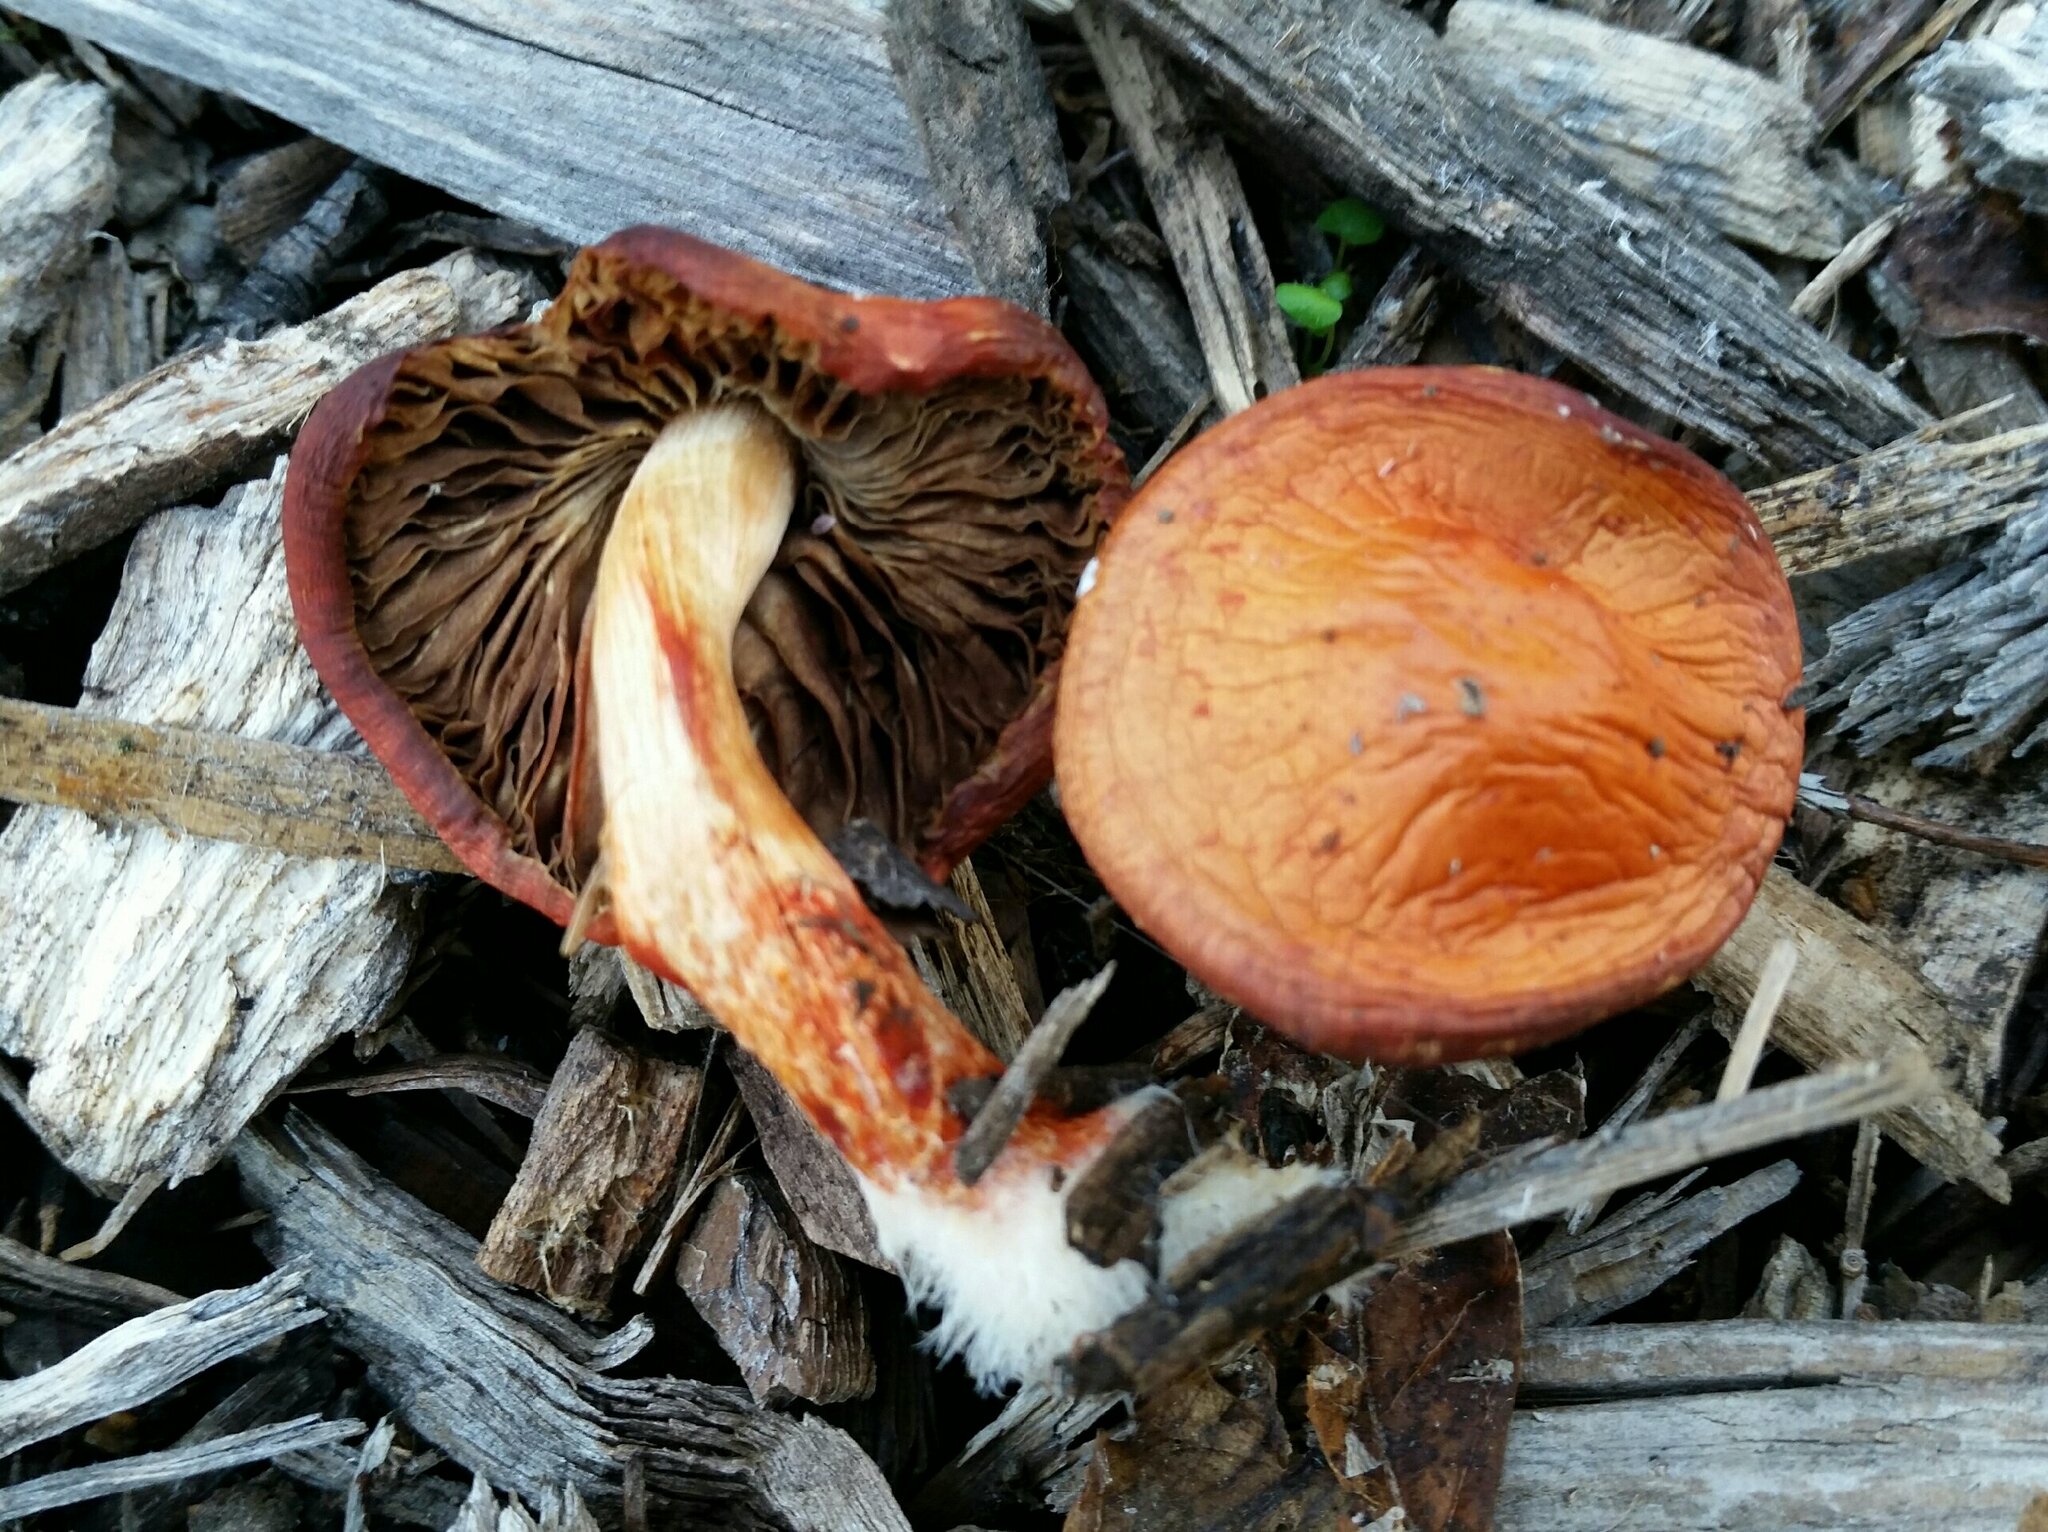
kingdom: Fungi
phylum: Basidiomycota
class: Agaricomycetes
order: Agaricales
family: Strophariaceae
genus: Leratiomyces
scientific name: Leratiomyces ceres
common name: Redlead roundhead
